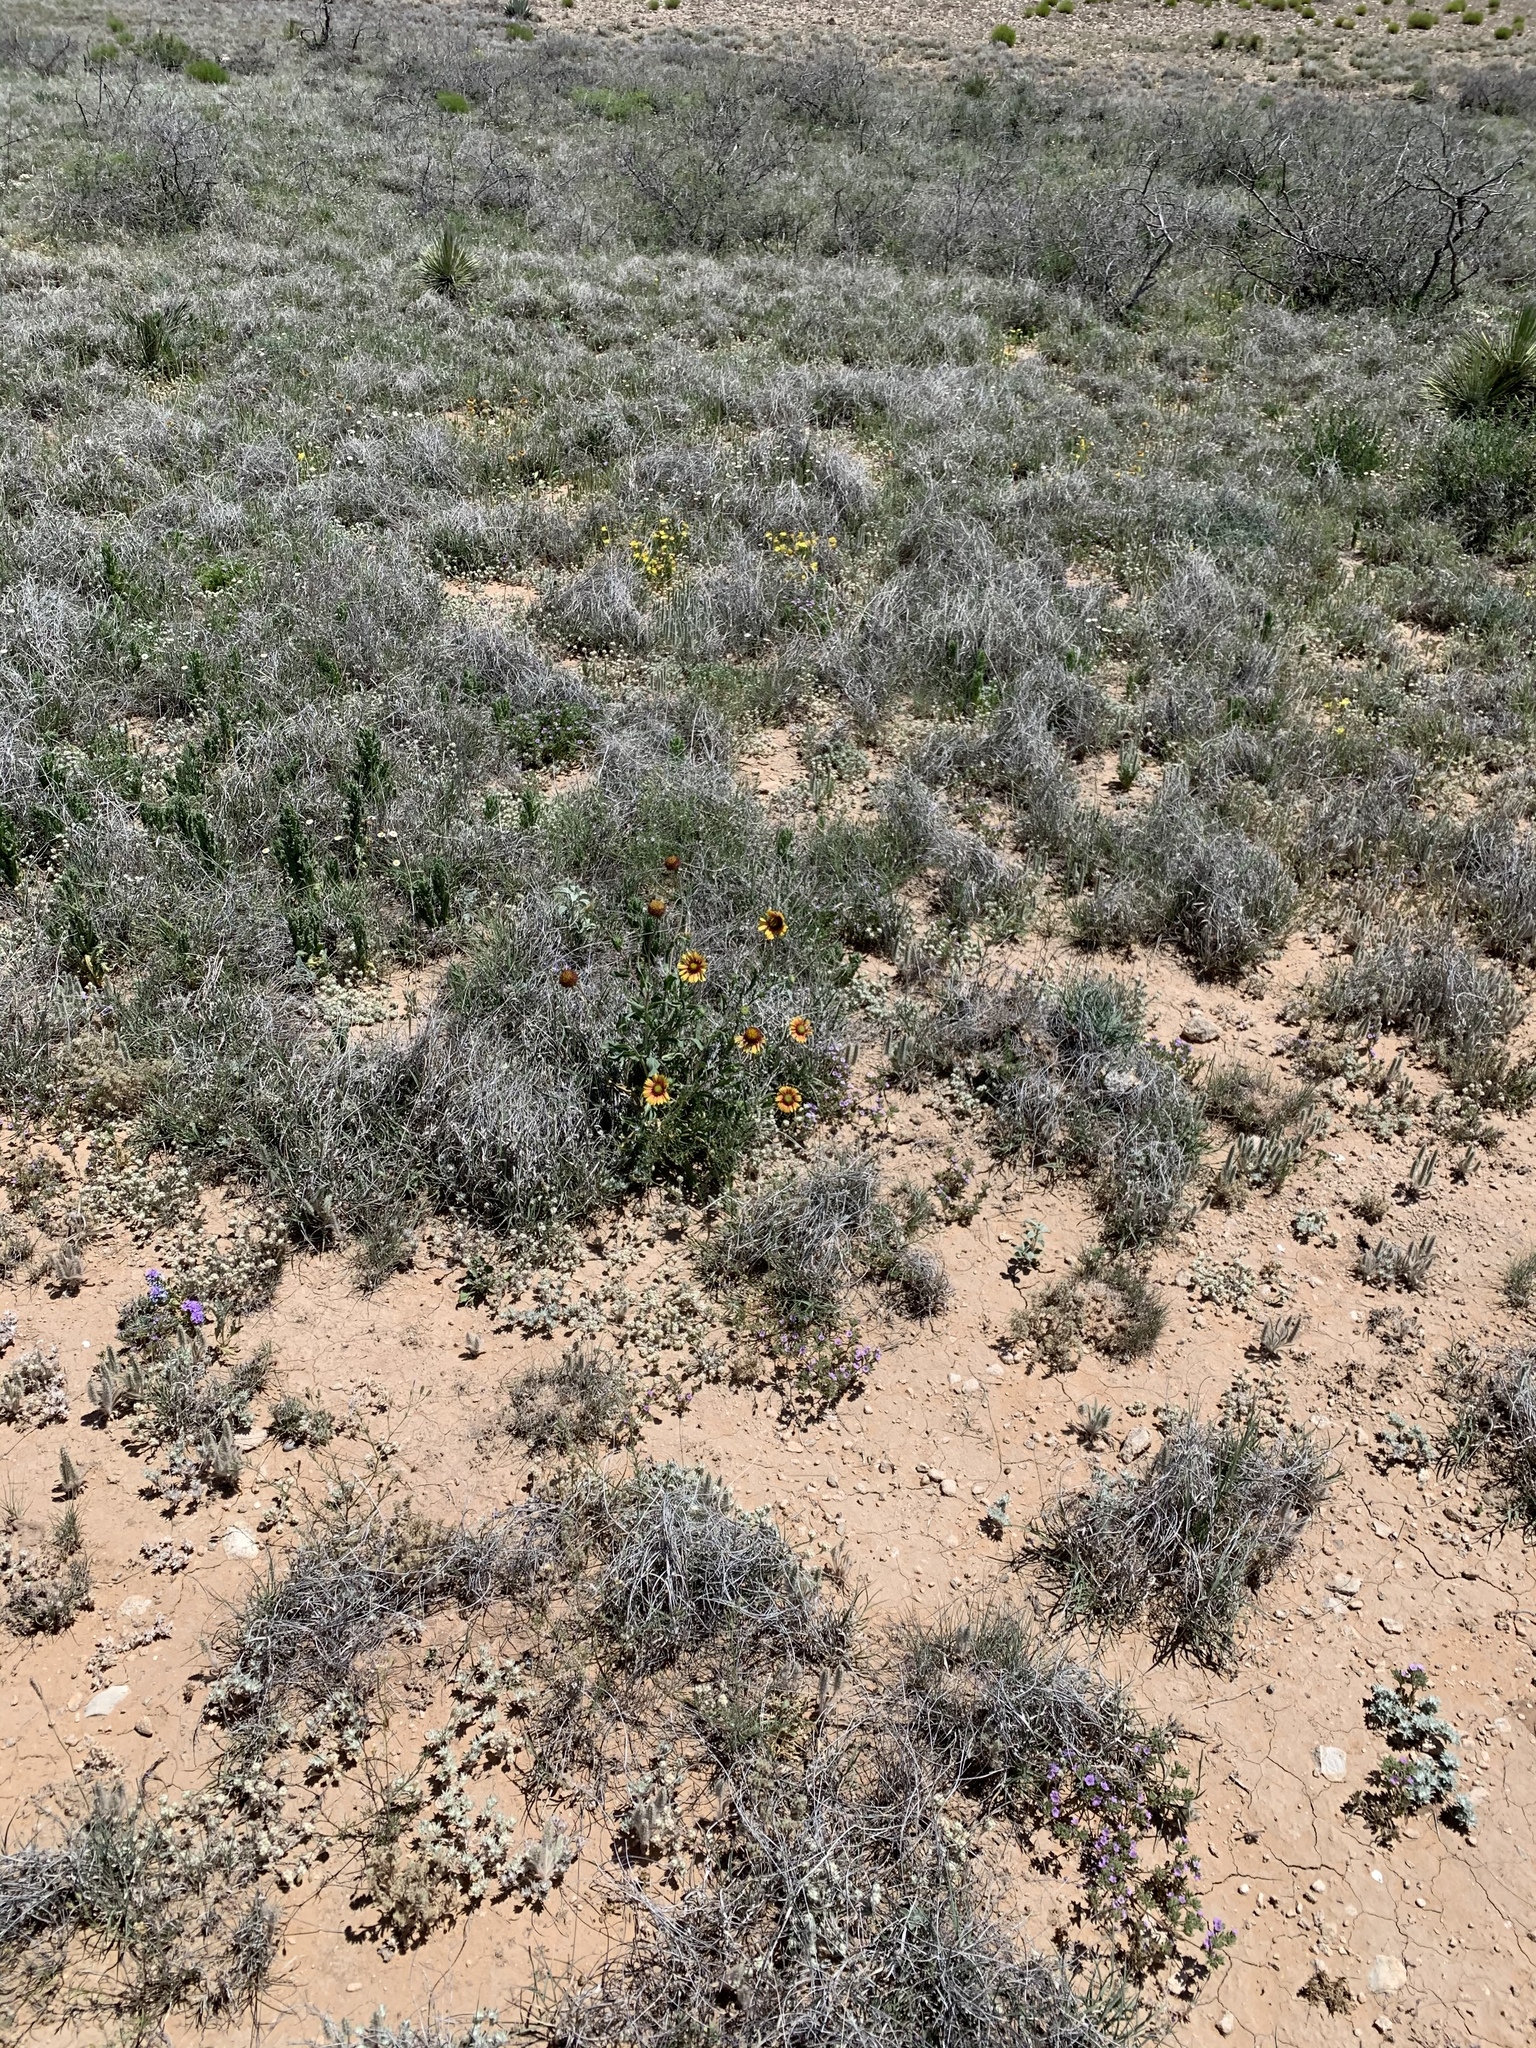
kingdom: Plantae
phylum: Tracheophyta
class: Magnoliopsida
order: Asterales
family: Asteraceae
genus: Gaillardia
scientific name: Gaillardia pulchella
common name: Firewheel
